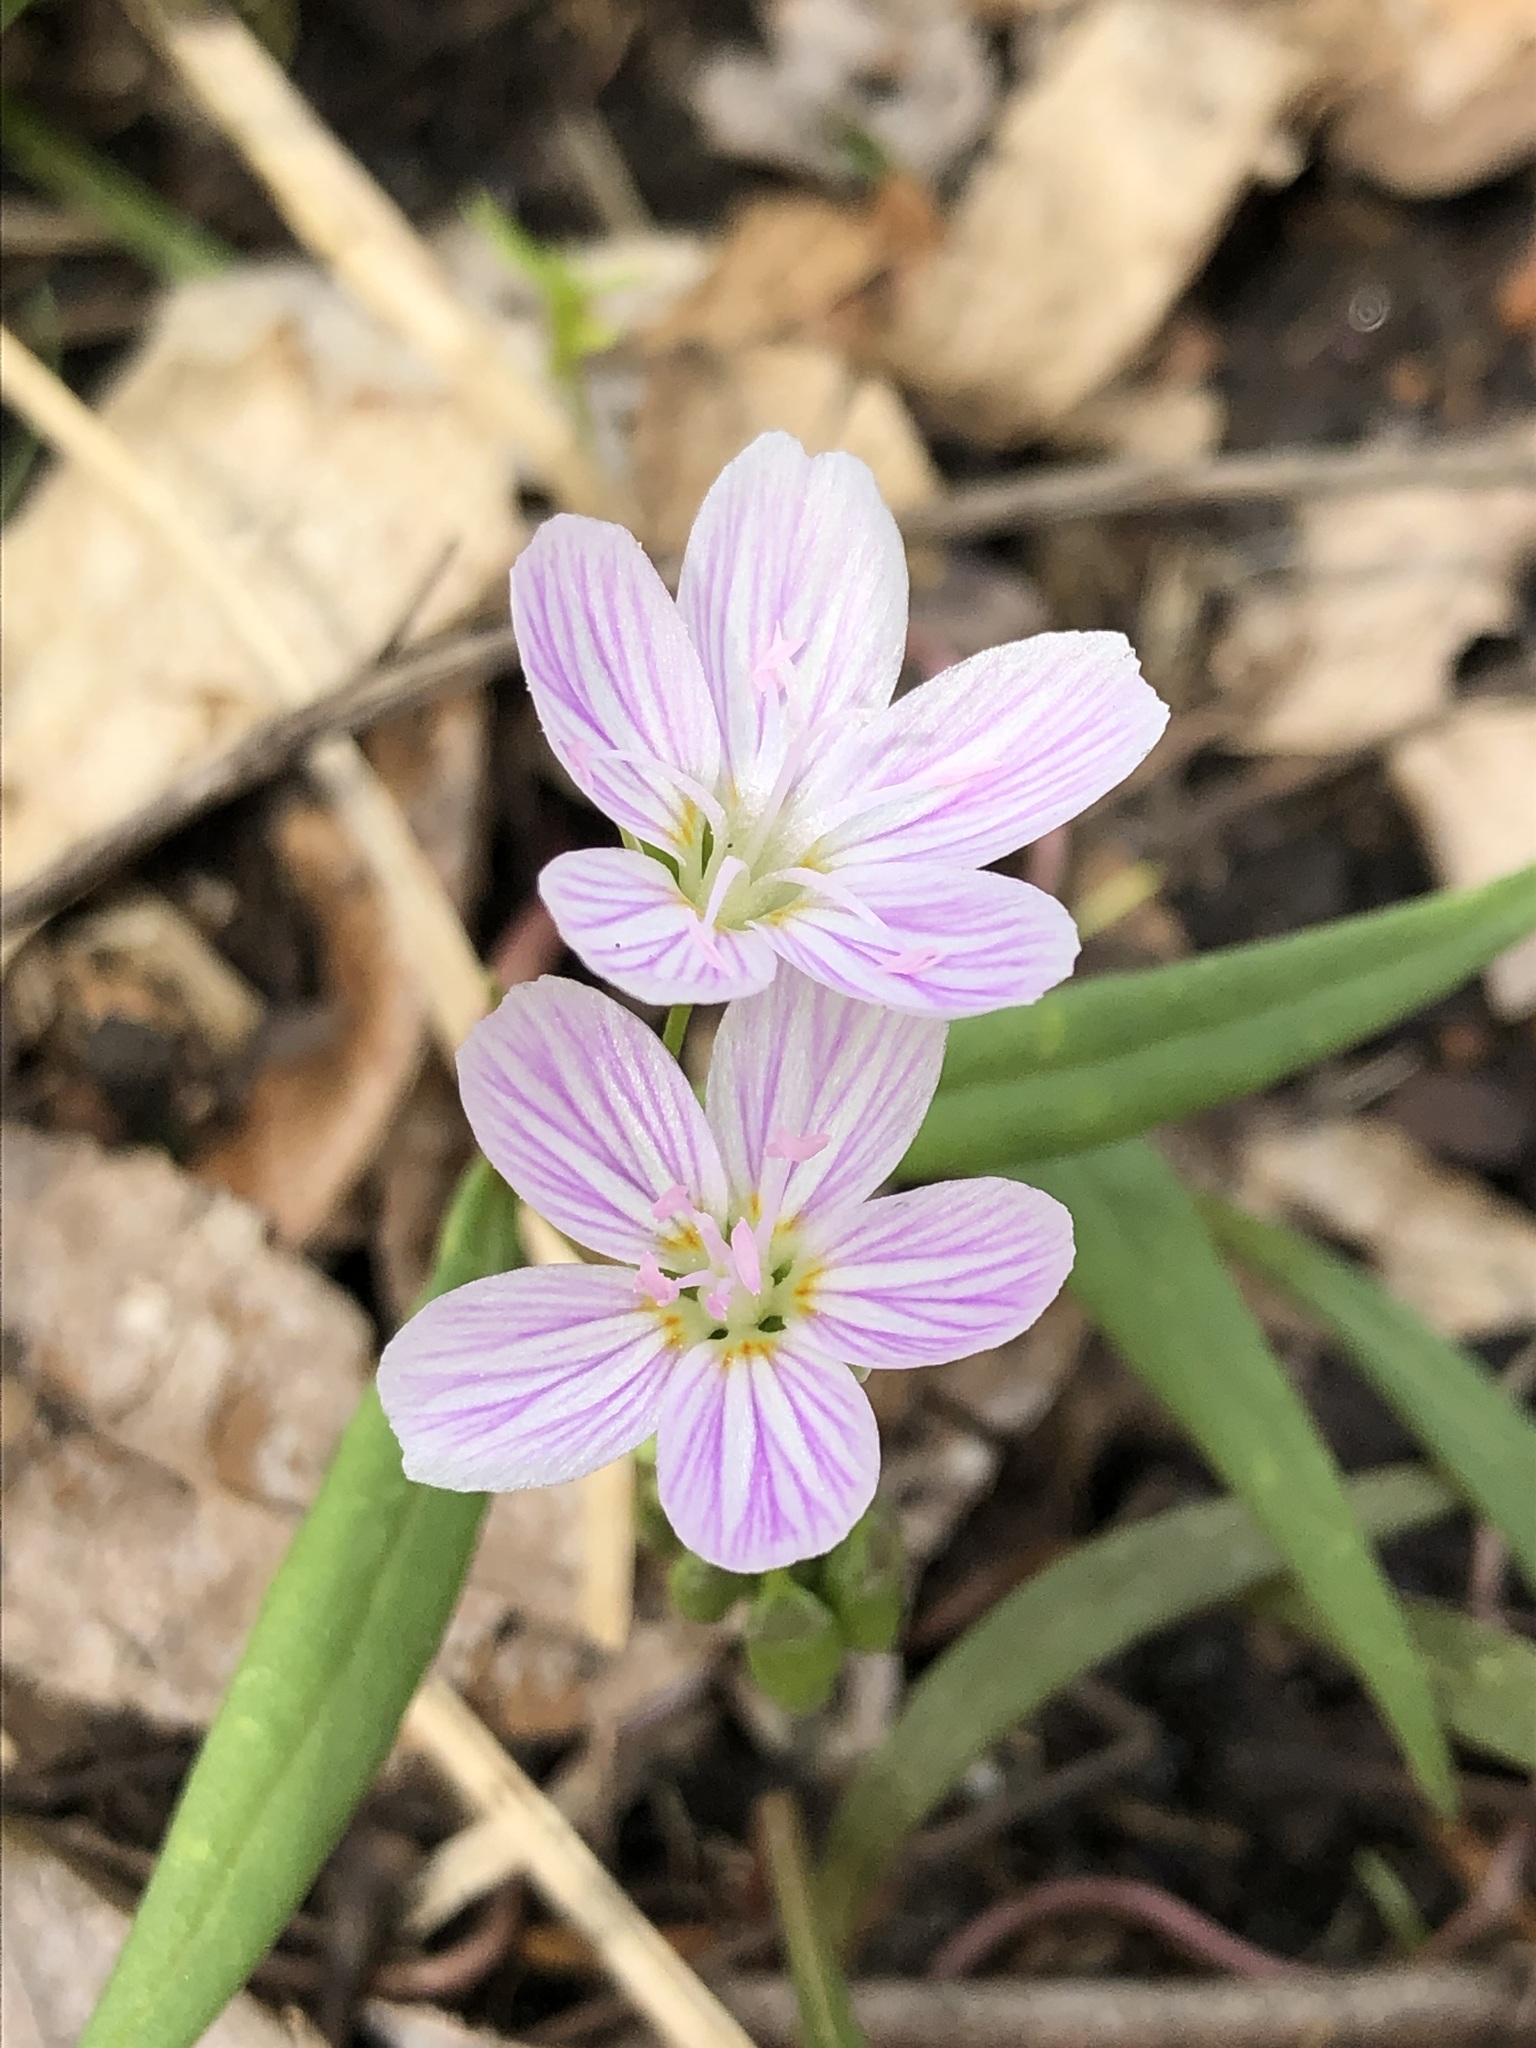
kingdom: Plantae
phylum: Tracheophyta
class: Magnoliopsida
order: Caryophyllales
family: Montiaceae
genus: Claytonia
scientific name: Claytonia virginica
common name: Virginia springbeauty
